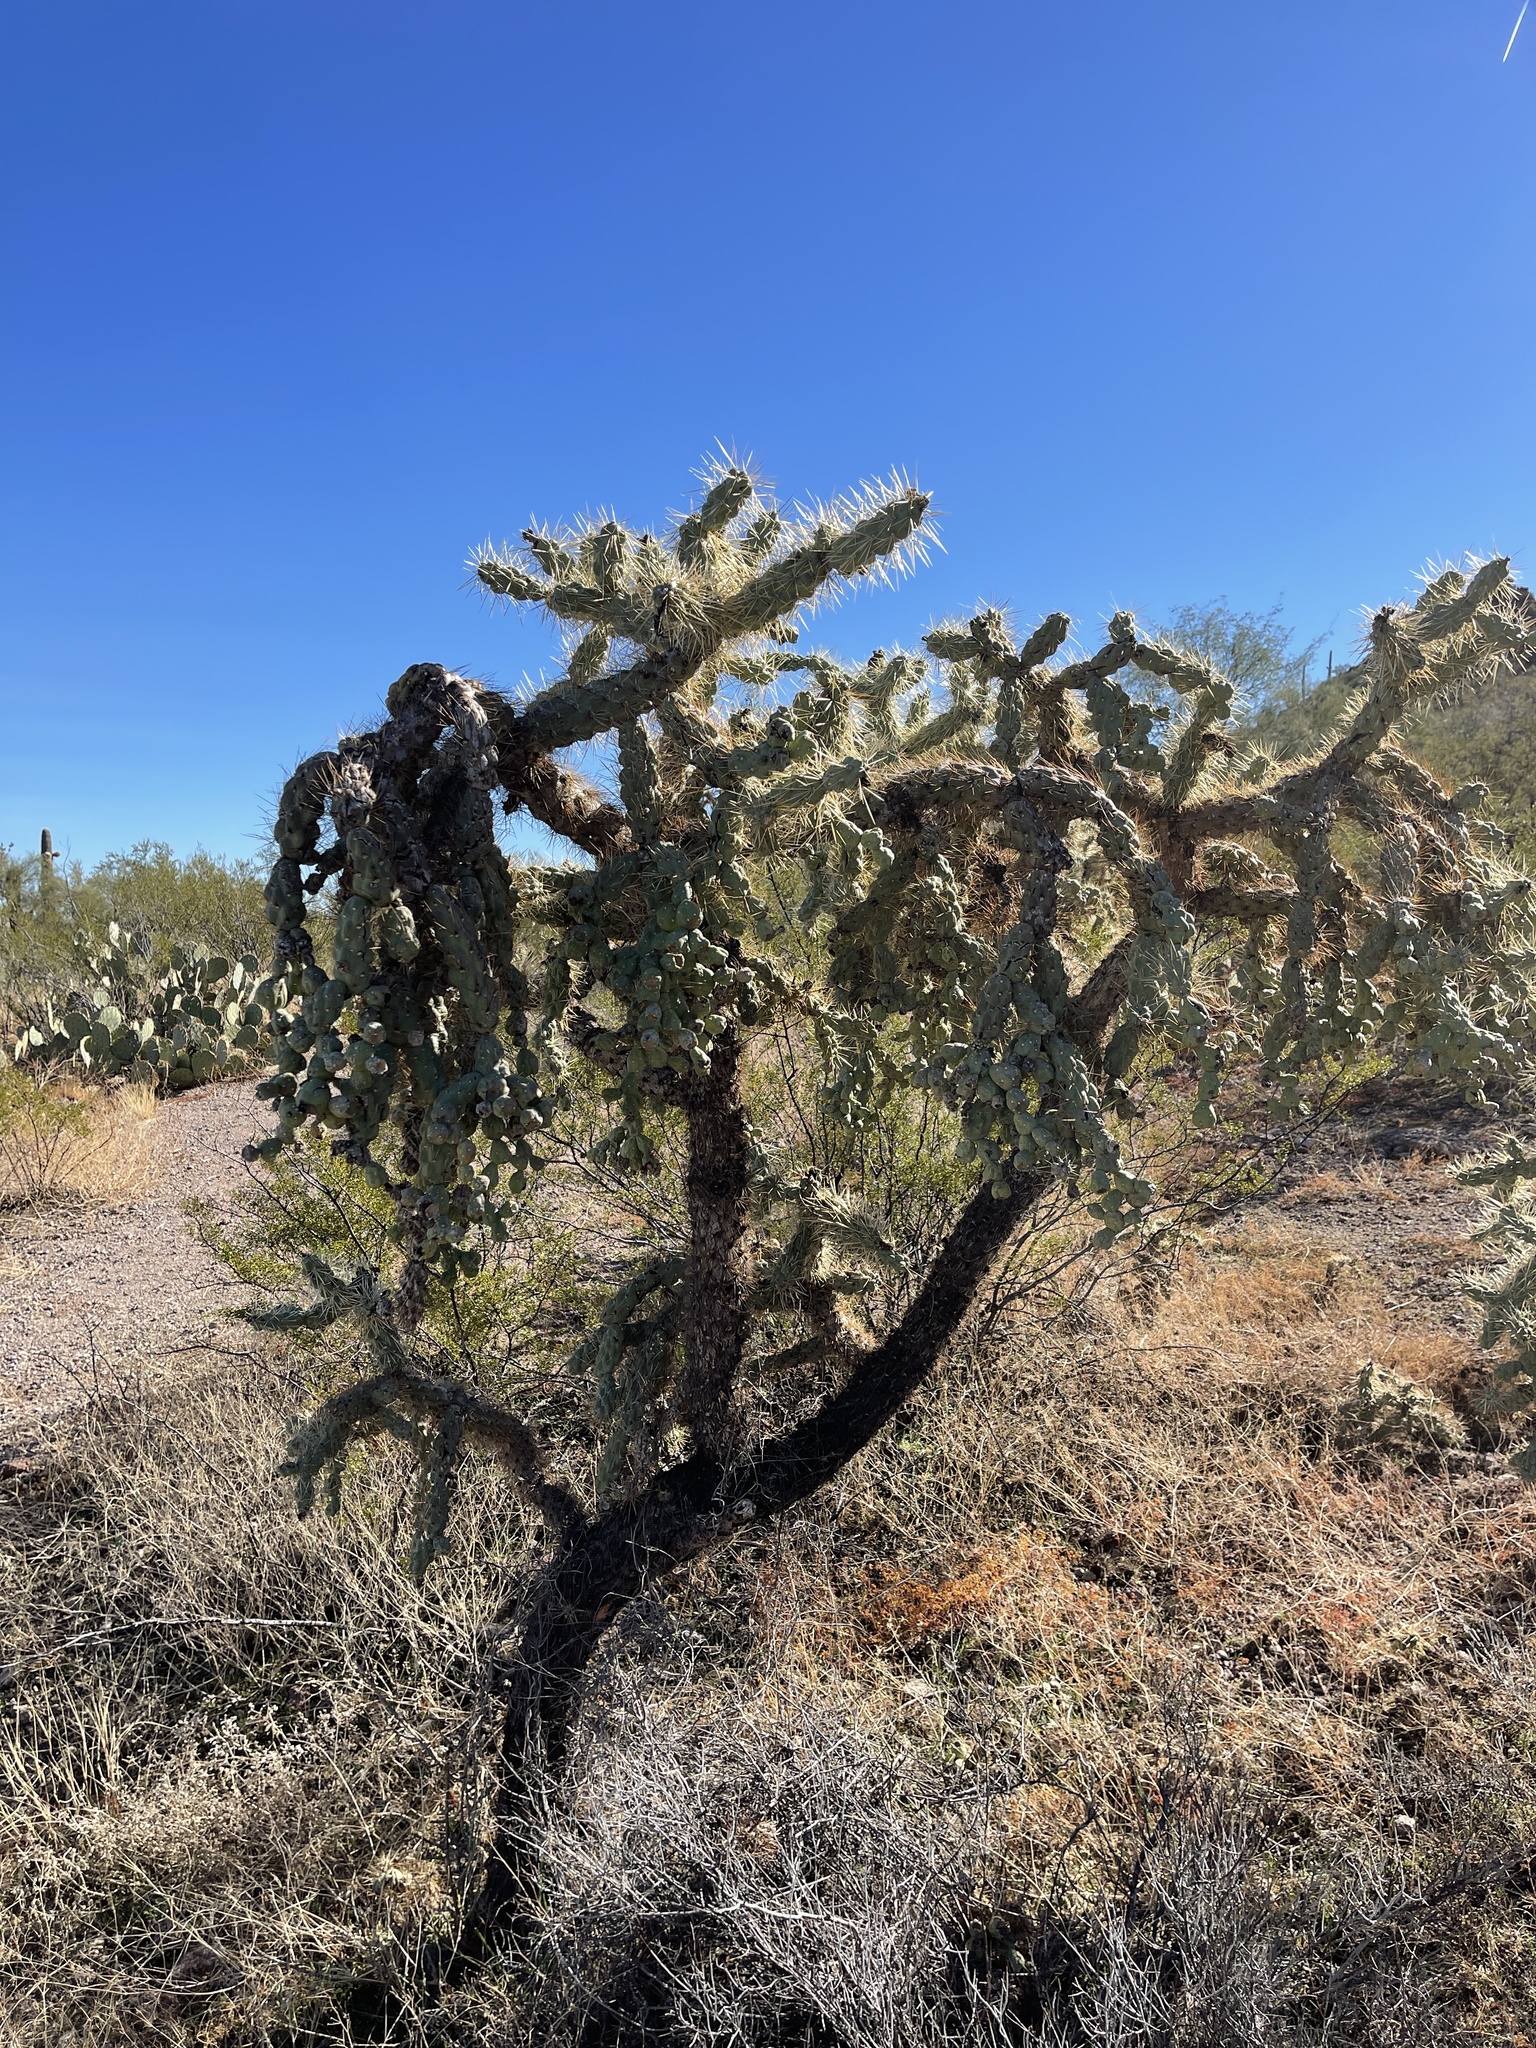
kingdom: Plantae
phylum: Tracheophyta
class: Magnoliopsida
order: Caryophyllales
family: Cactaceae
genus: Cylindropuntia
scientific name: Cylindropuntia fulgida
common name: Jumping cholla
